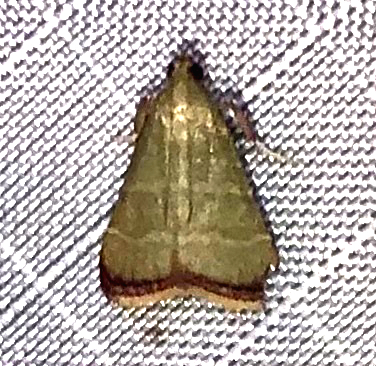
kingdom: Animalia
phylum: Arthropoda
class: Insecta
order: Lepidoptera
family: Pyralidae
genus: Arta
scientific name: Arta olivalis
